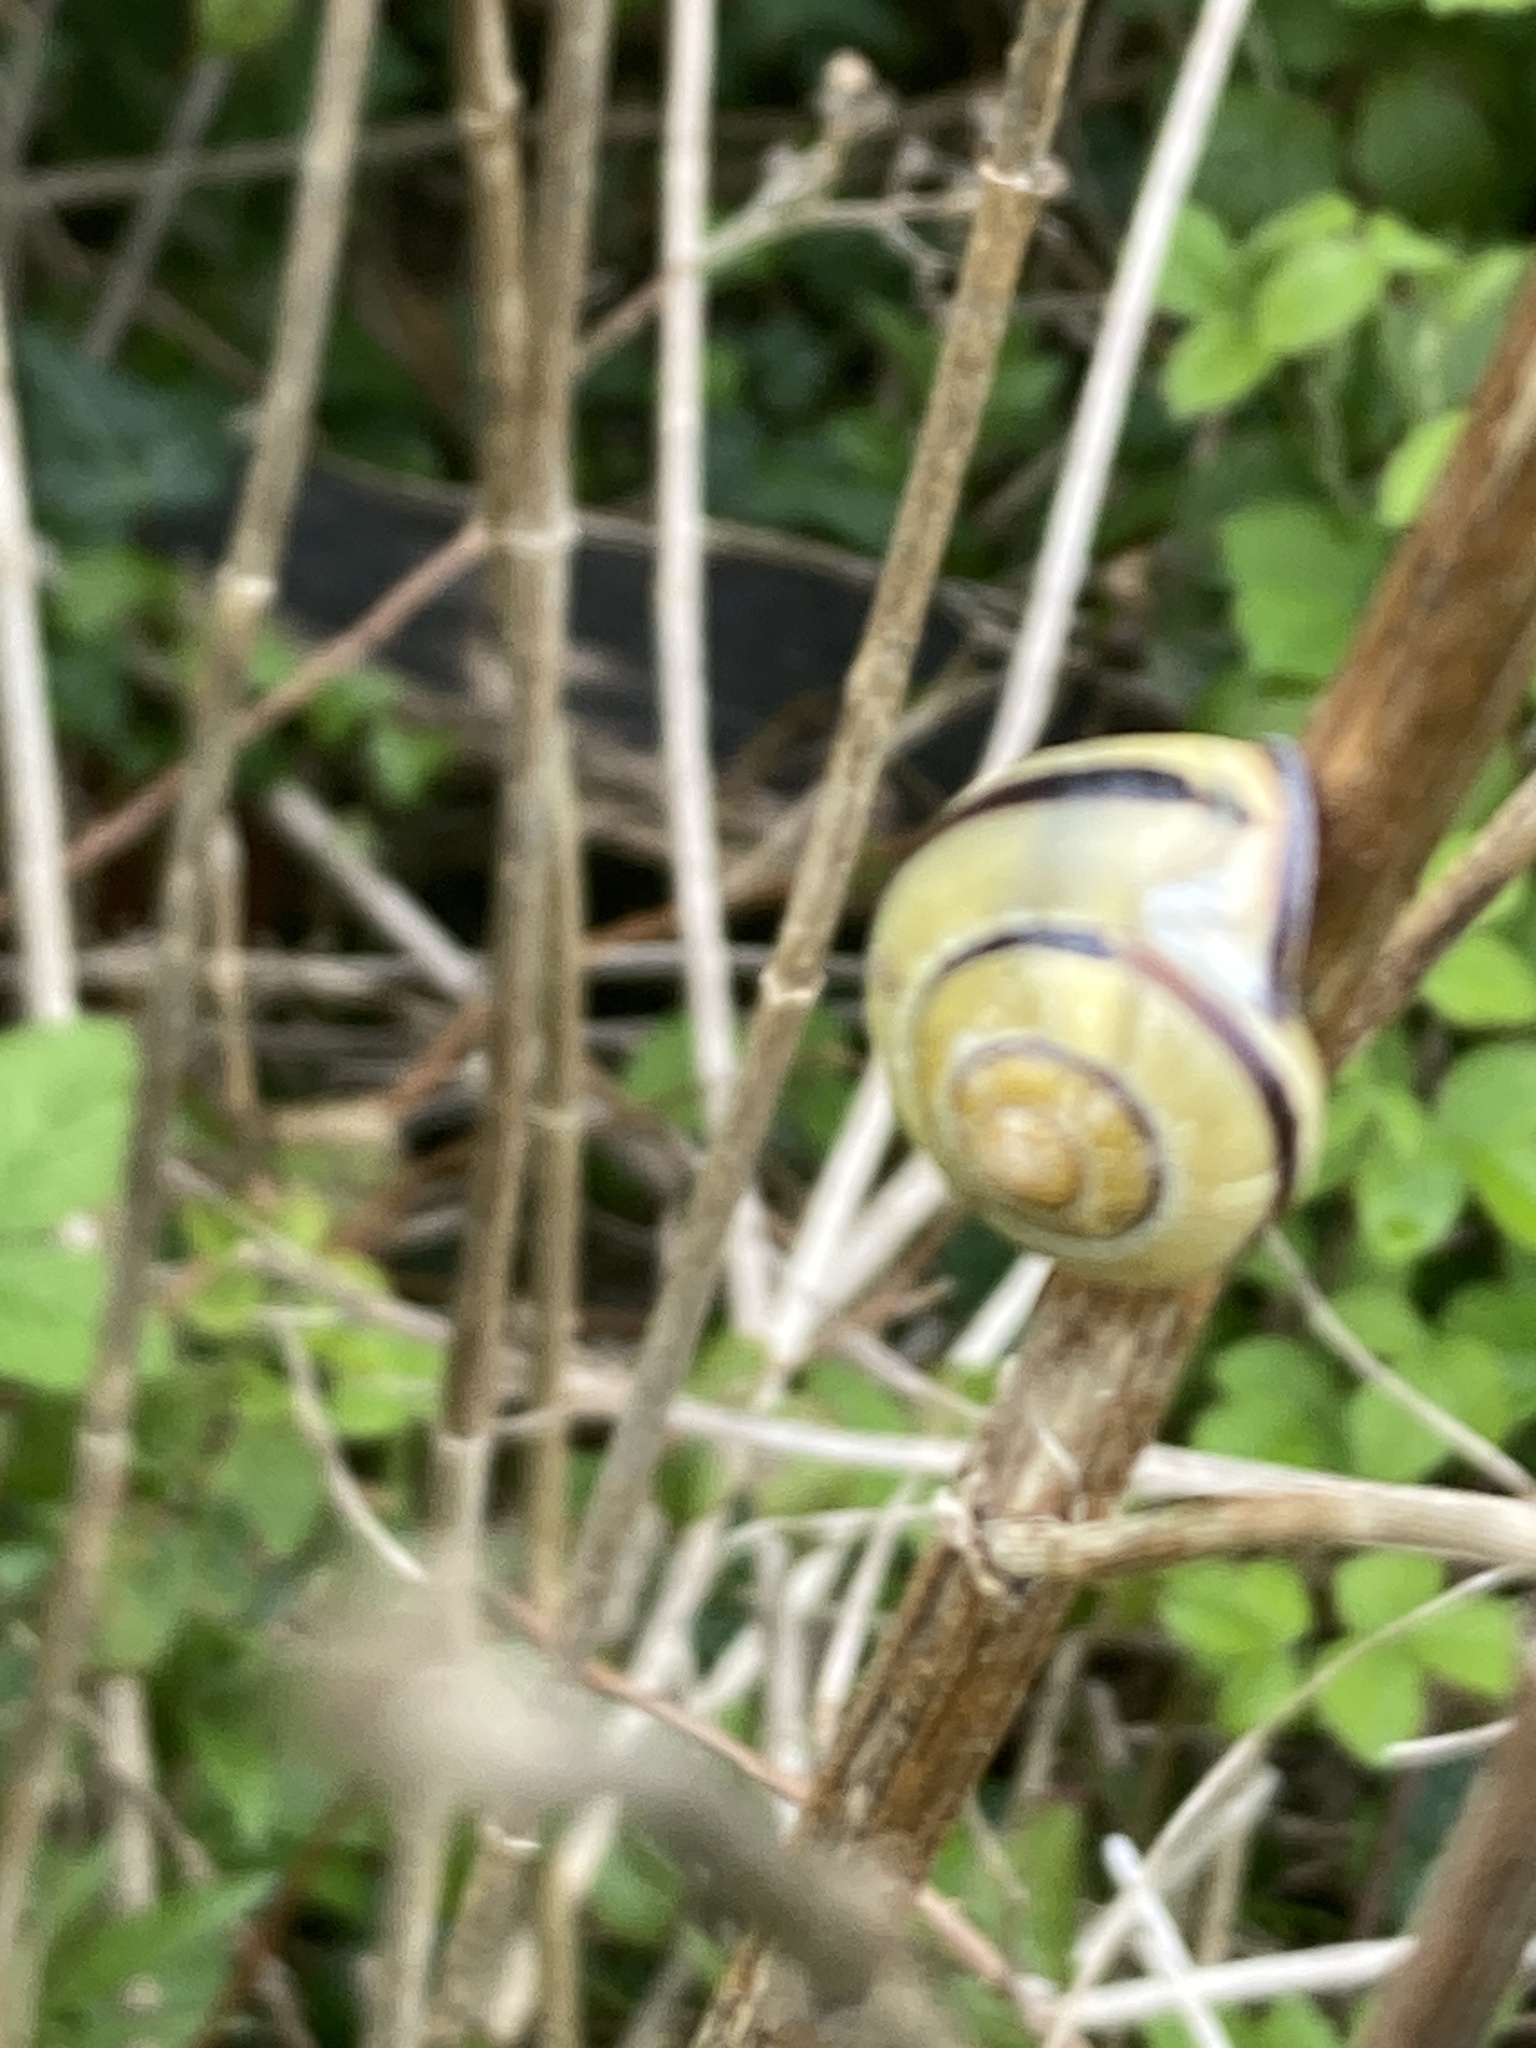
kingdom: Animalia
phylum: Mollusca
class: Gastropoda
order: Stylommatophora
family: Helicidae
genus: Cepaea
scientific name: Cepaea nemoralis
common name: Grovesnail
